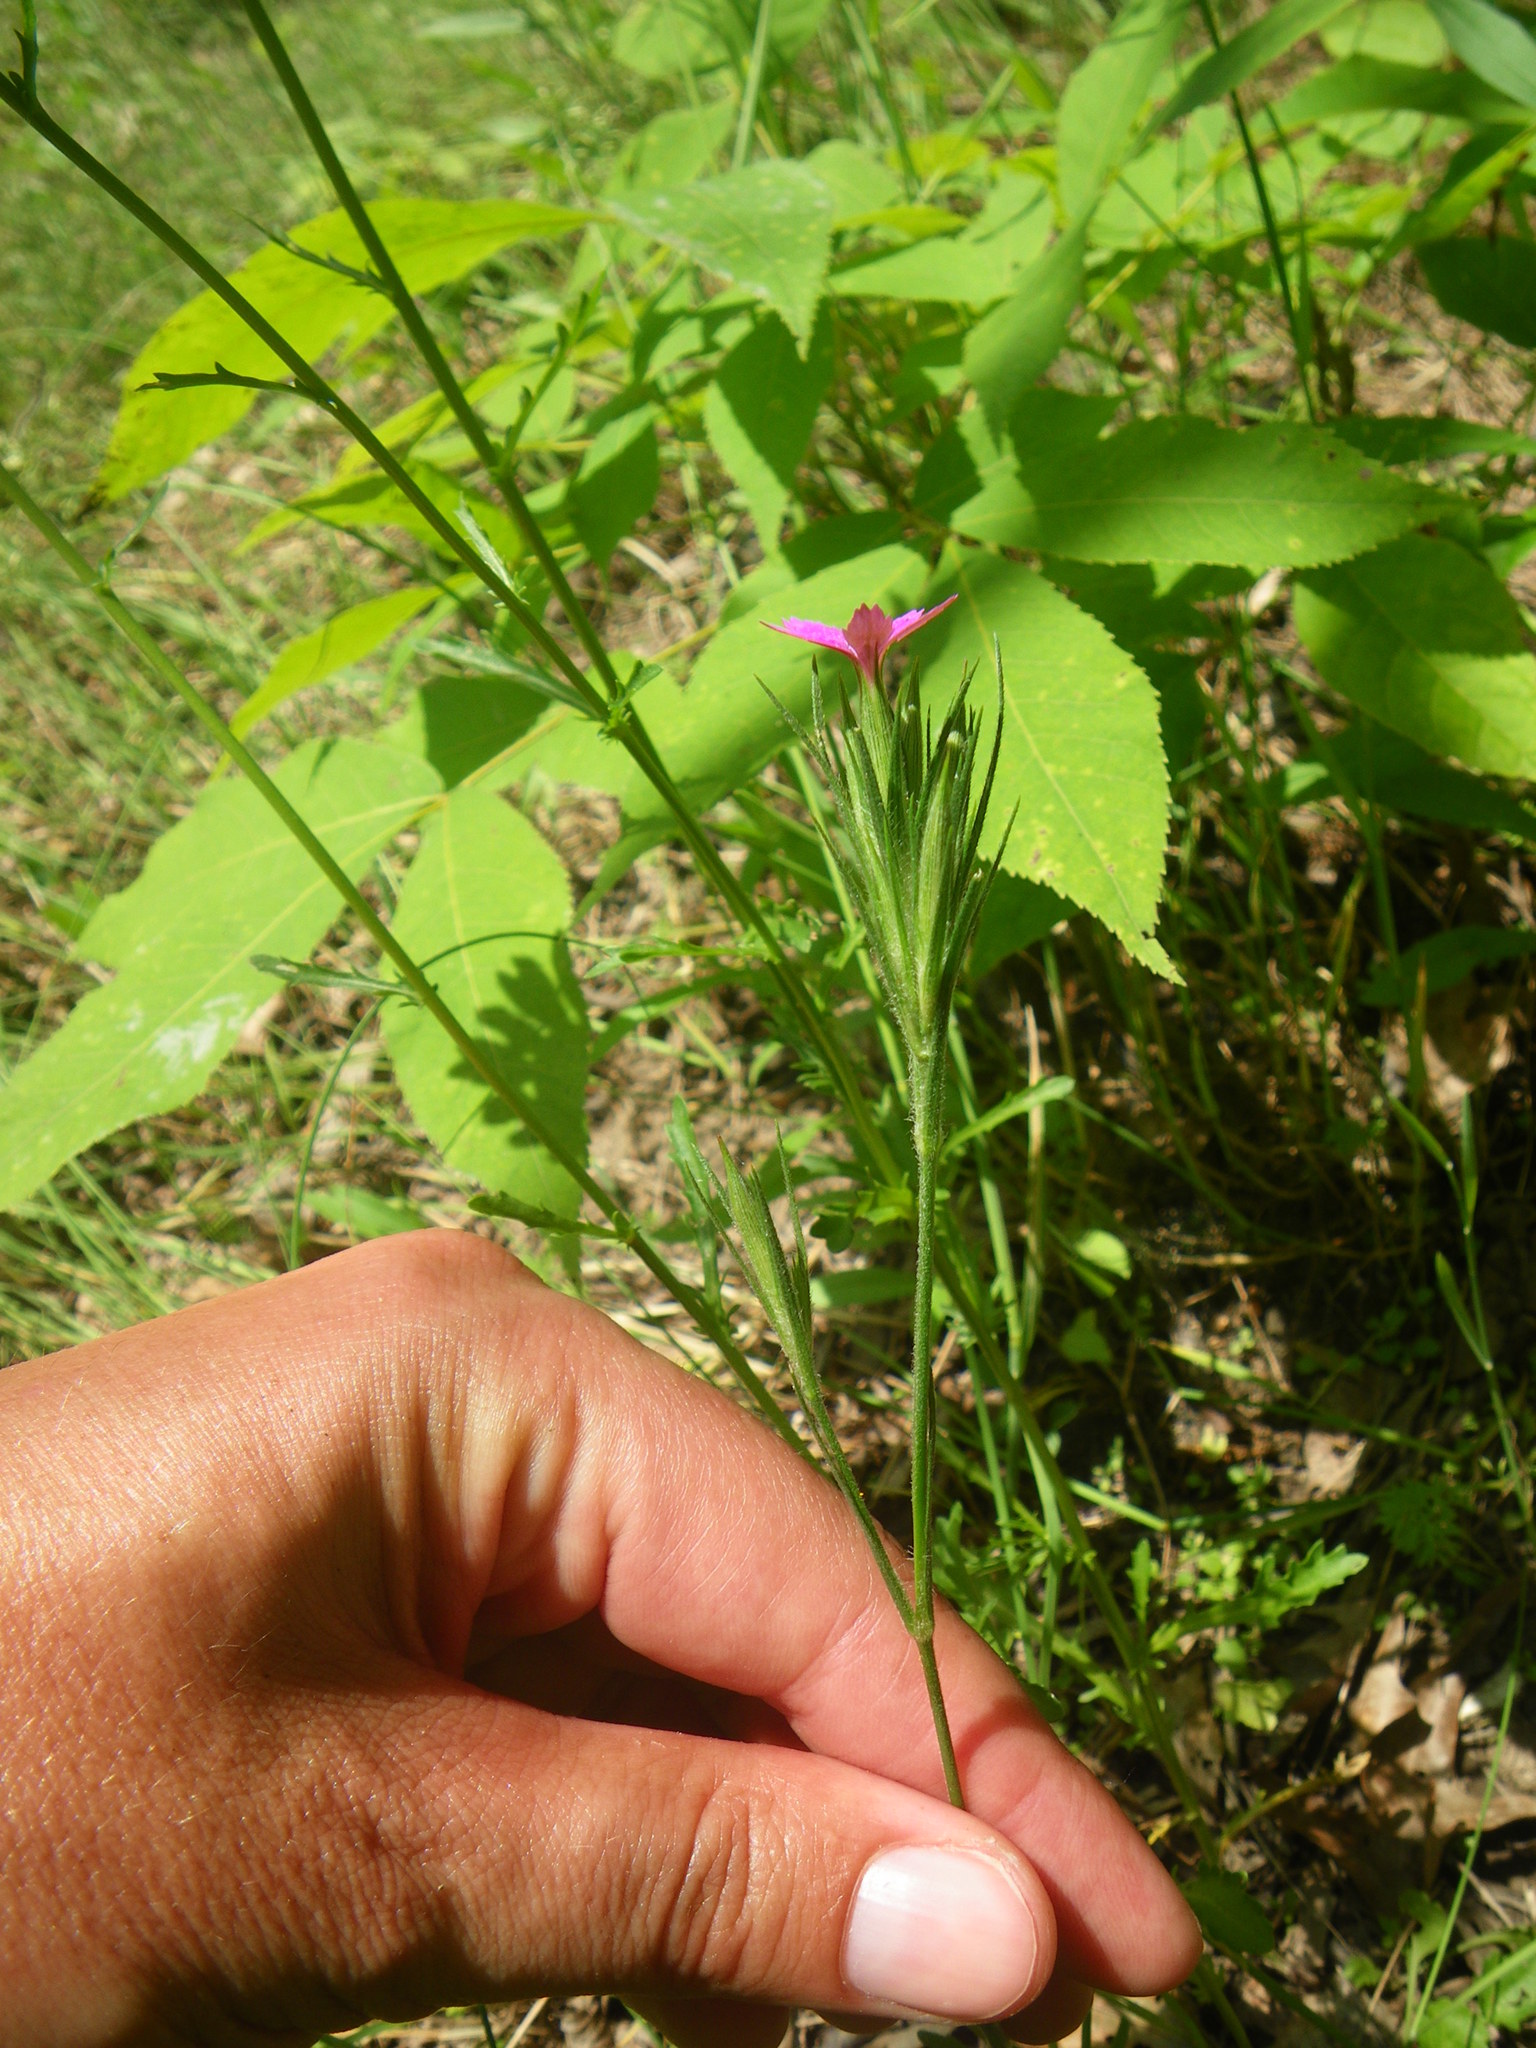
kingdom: Plantae
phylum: Tracheophyta
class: Magnoliopsida
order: Caryophyllales
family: Caryophyllaceae
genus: Dianthus
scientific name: Dianthus armeria
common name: Deptford pink
